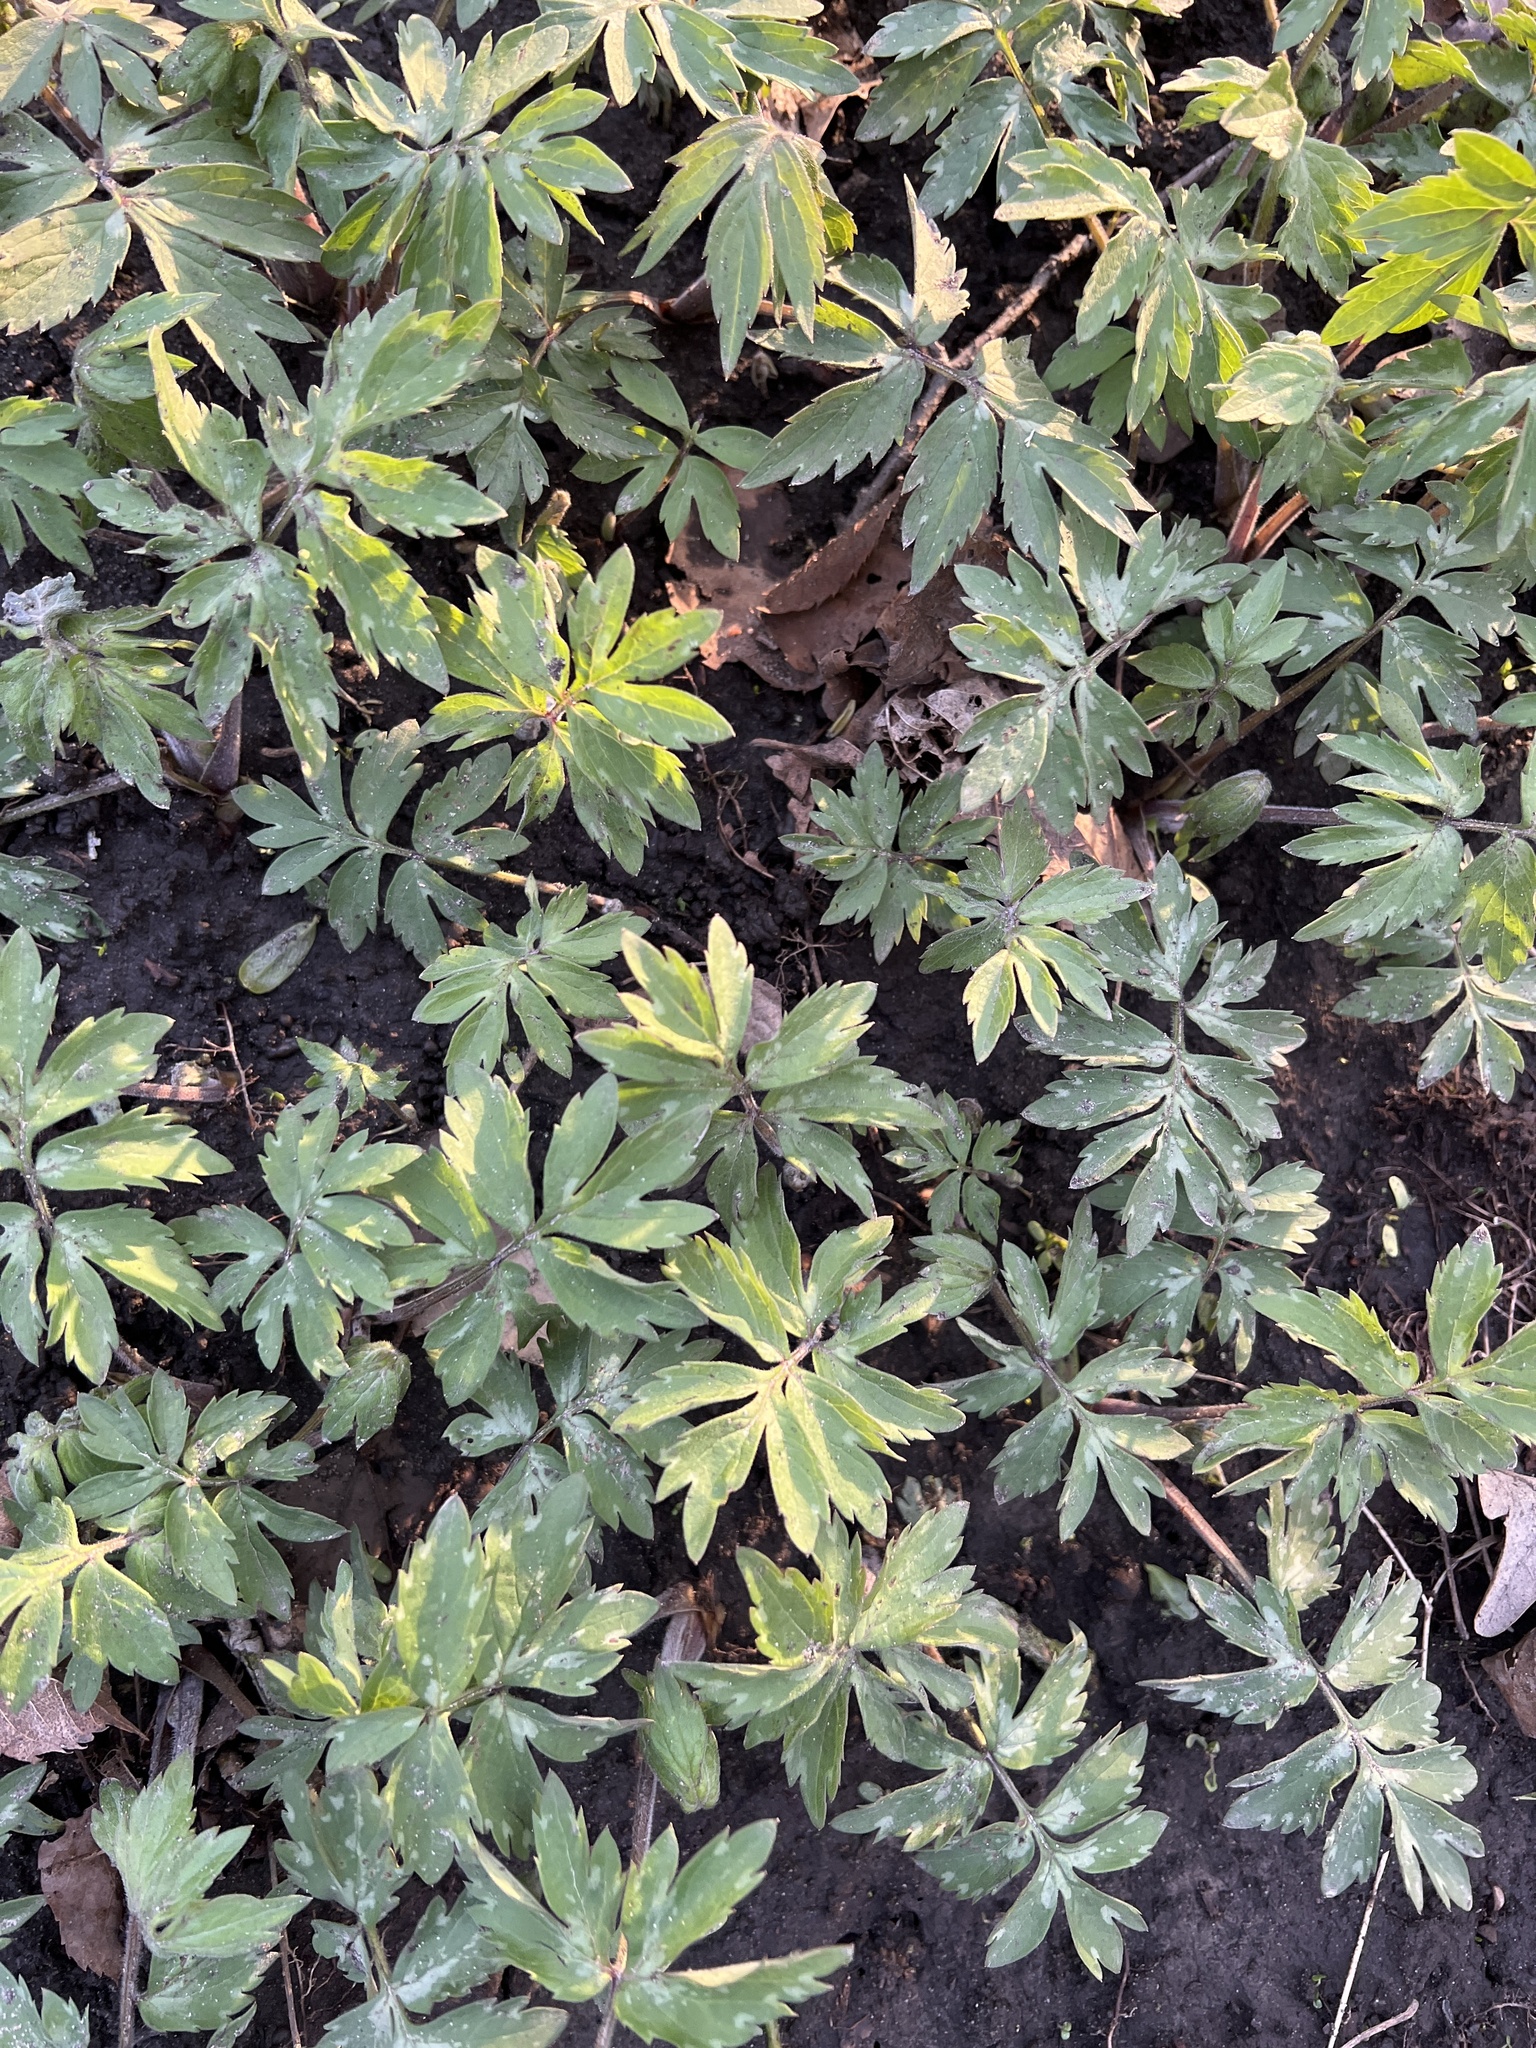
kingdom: Plantae
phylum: Tracheophyta
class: Magnoliopsida
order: Boraginales
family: Hydrophyllaceae
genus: Hydrophyllum
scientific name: Hydrophyllum virginianum
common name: Virginia waterleaf
